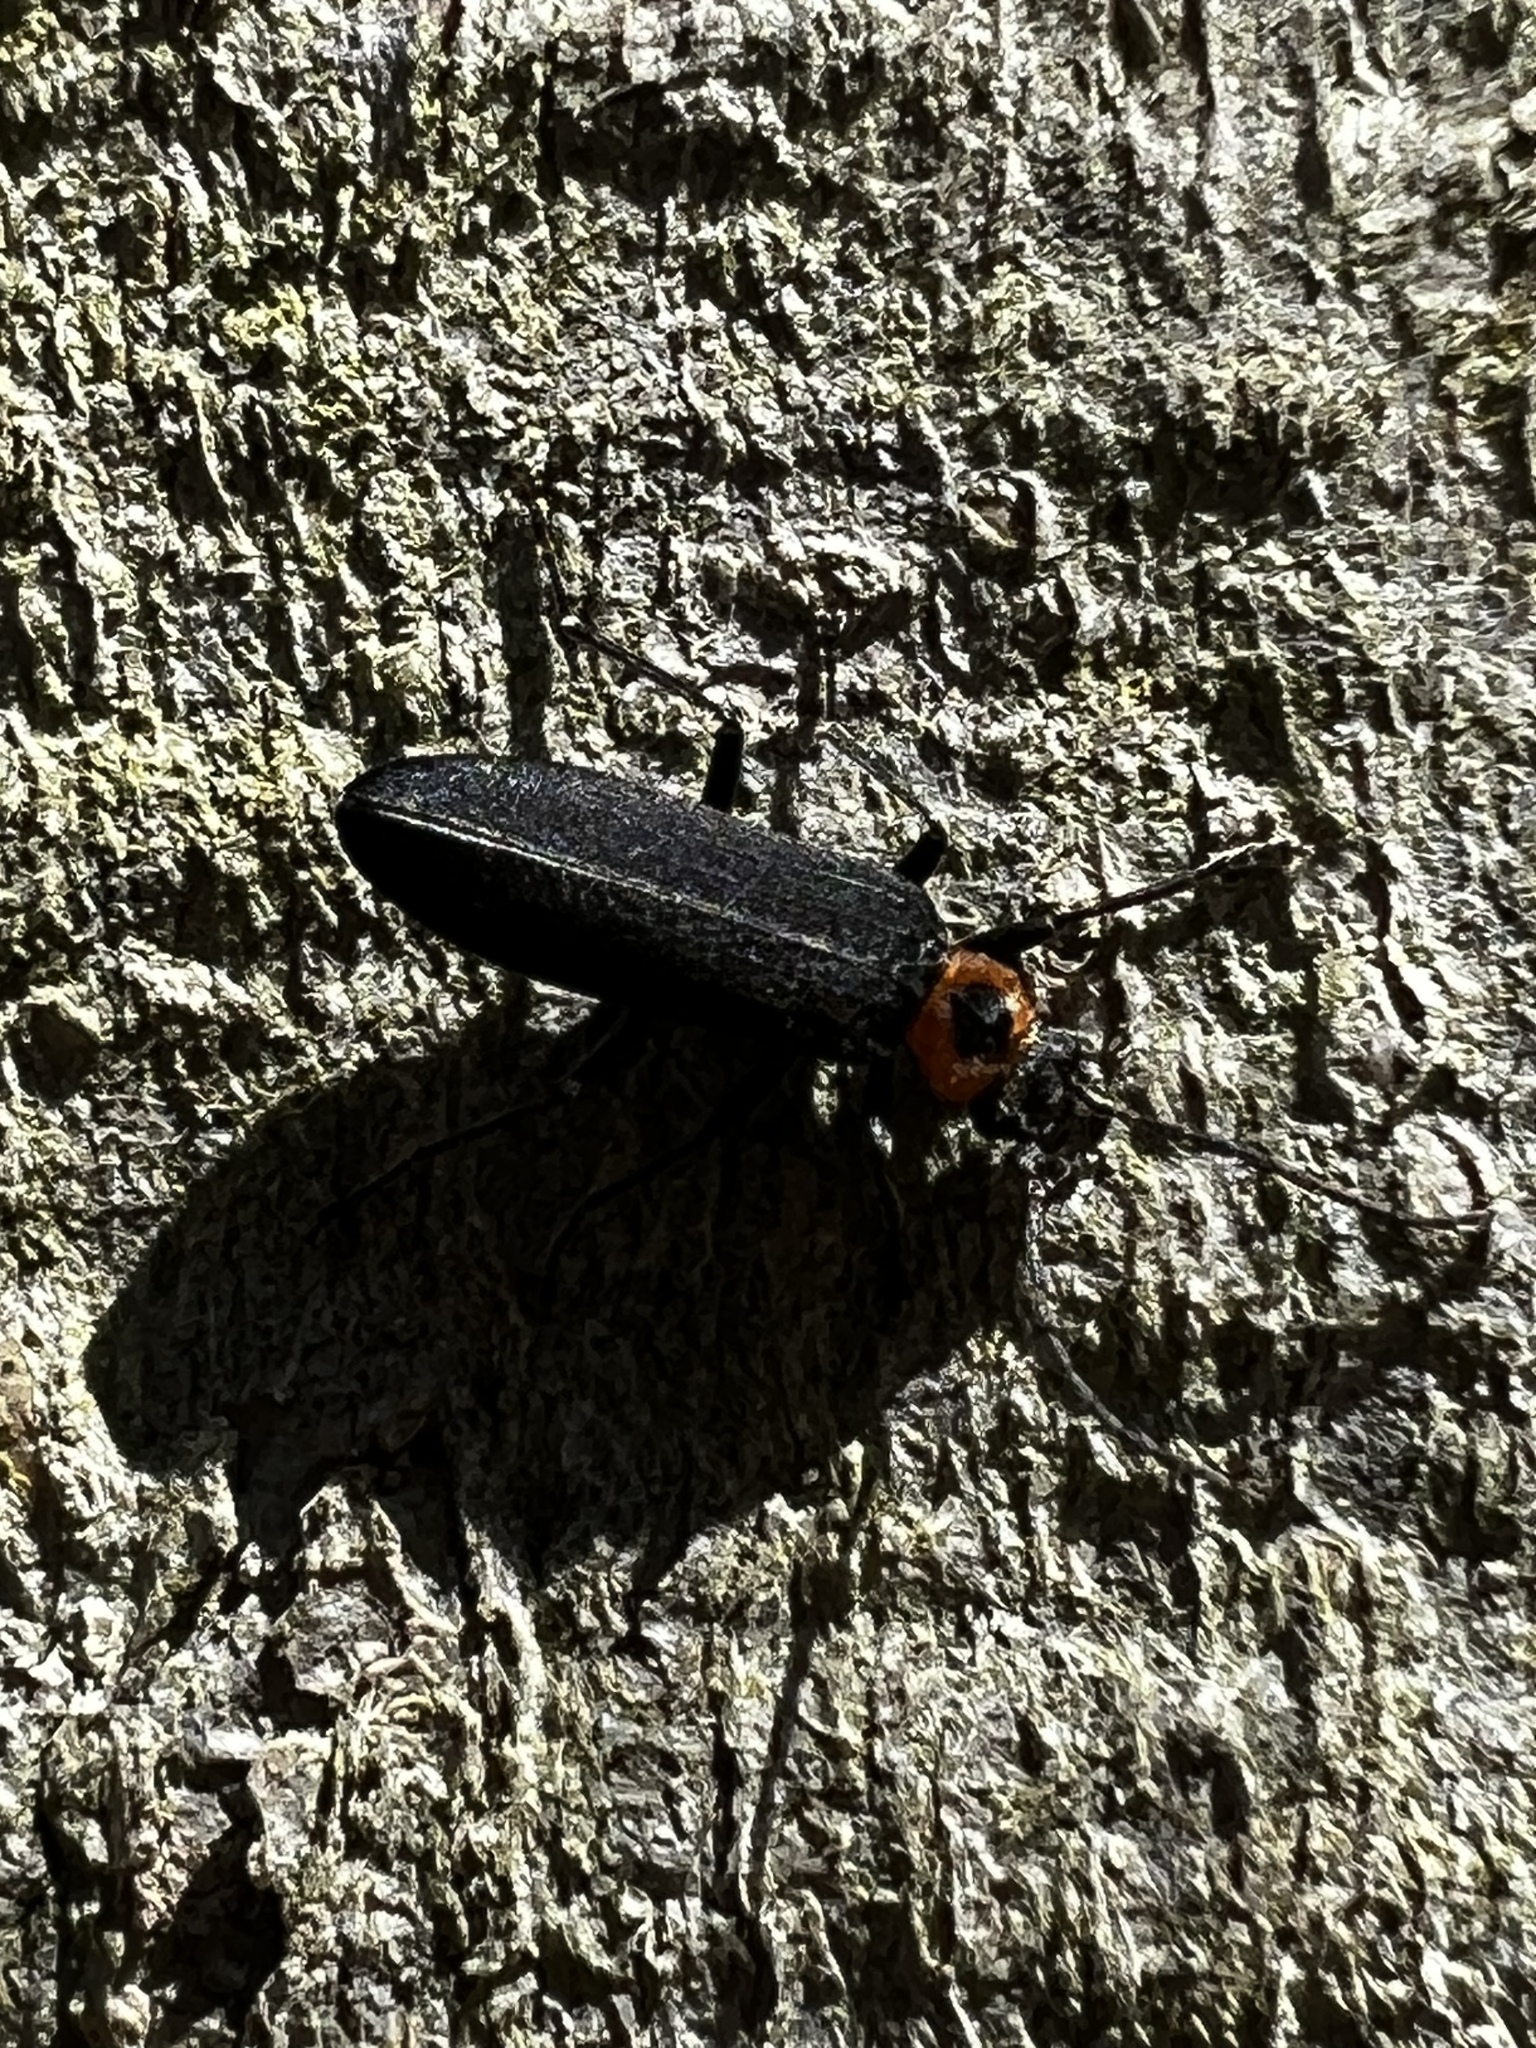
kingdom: Animalia
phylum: Arthropoda
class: Insecta
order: Coleoptera
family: Oedemeridae
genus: Ischnomera
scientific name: Ischnomera
